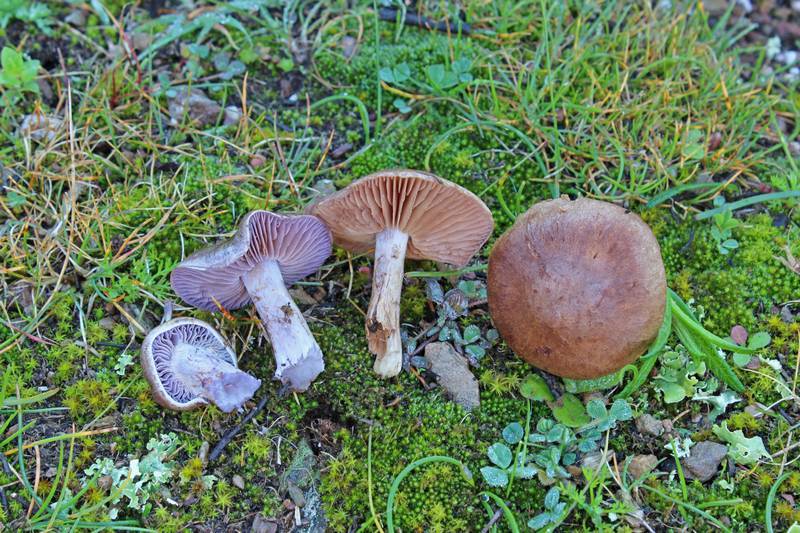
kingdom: Fungi
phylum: Basidiomycota
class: Agaricomycetes
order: Agaricales
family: Cortinariaceae
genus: Cortinarius
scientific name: Cortinarius xerophilus
